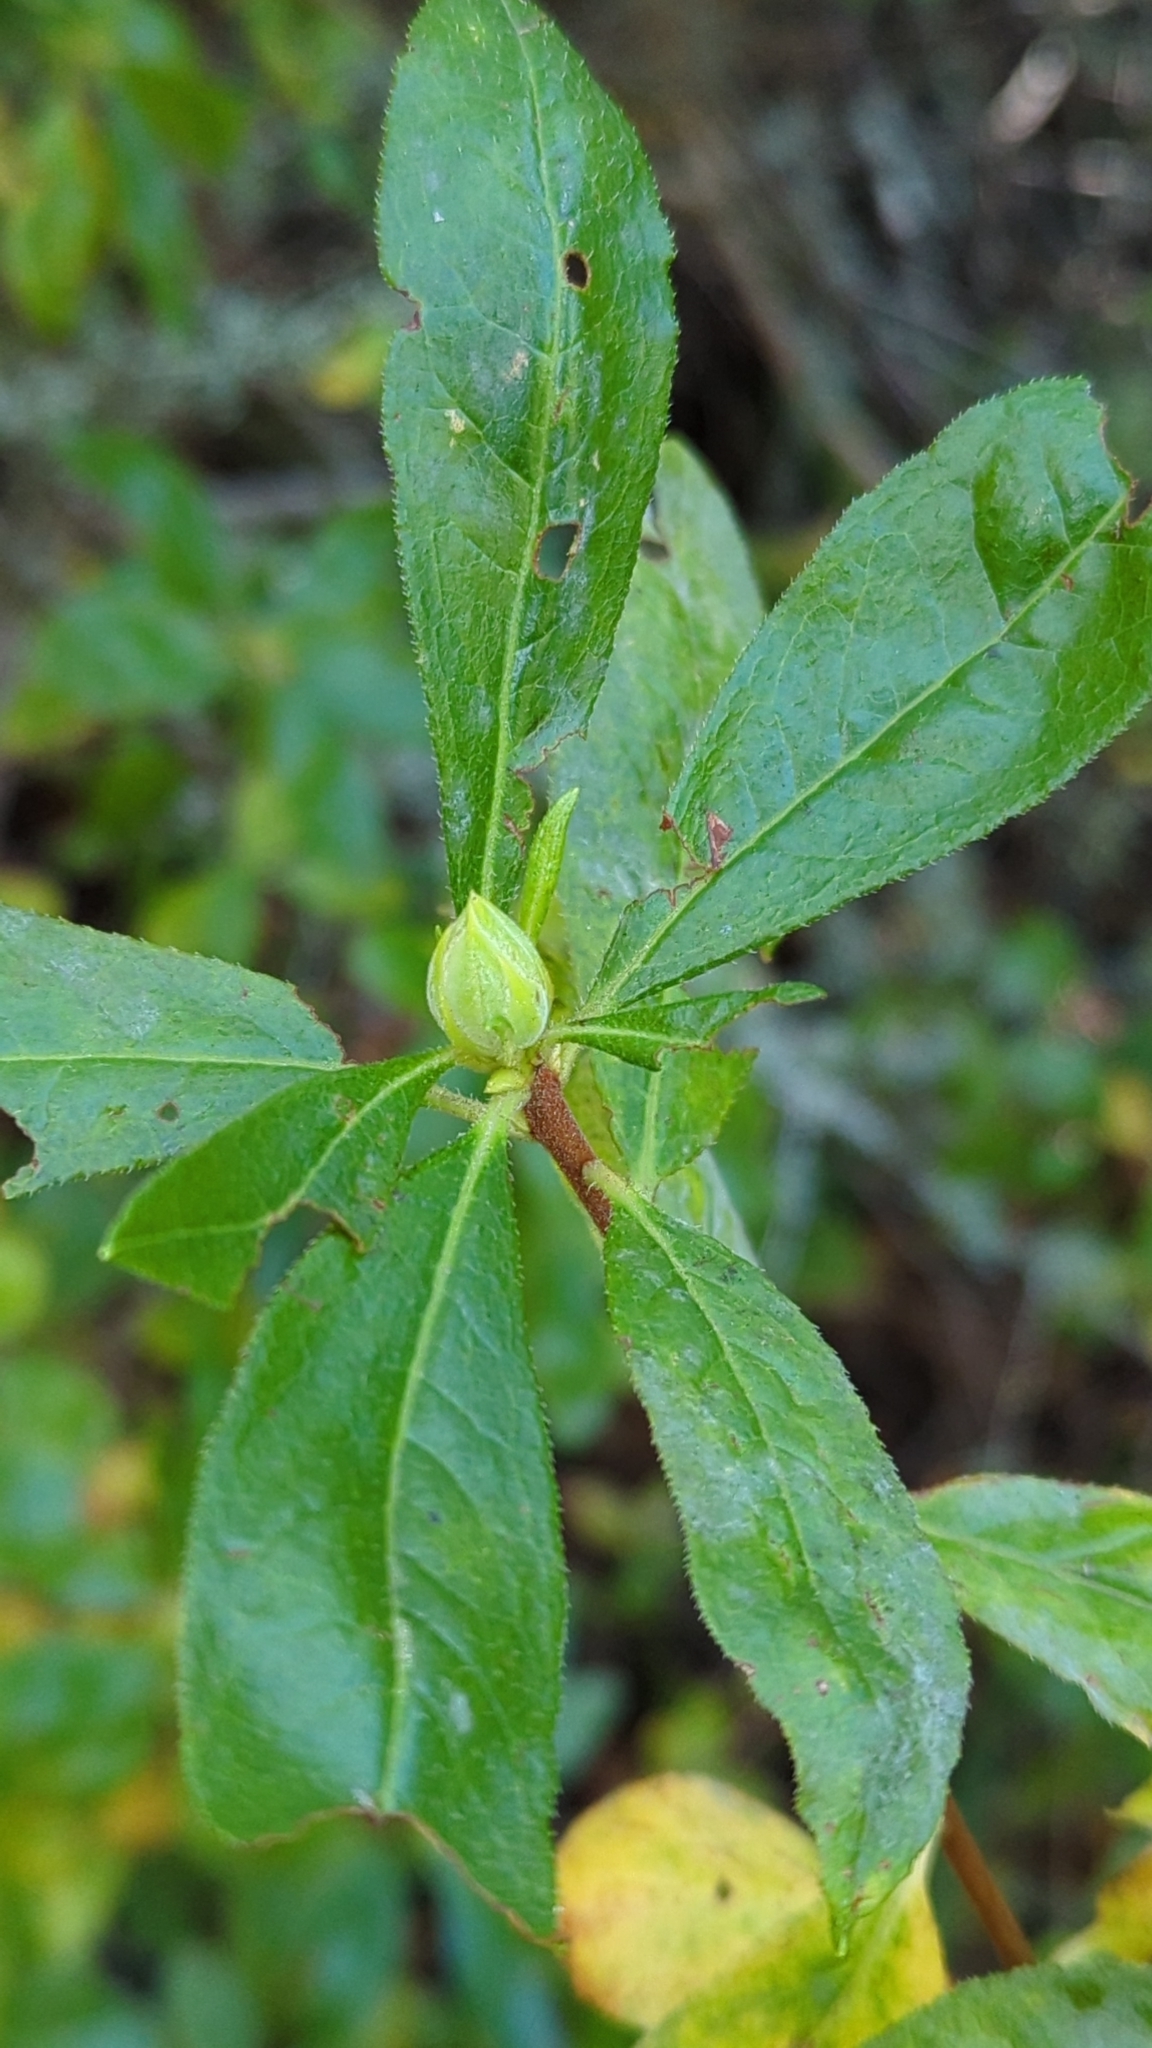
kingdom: Plantae
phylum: Tracheophyta
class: Magnoliopsida
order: Ericales
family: Ericaceae
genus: Rhododendron
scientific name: Rhododendron occidentale
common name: Western azalea
